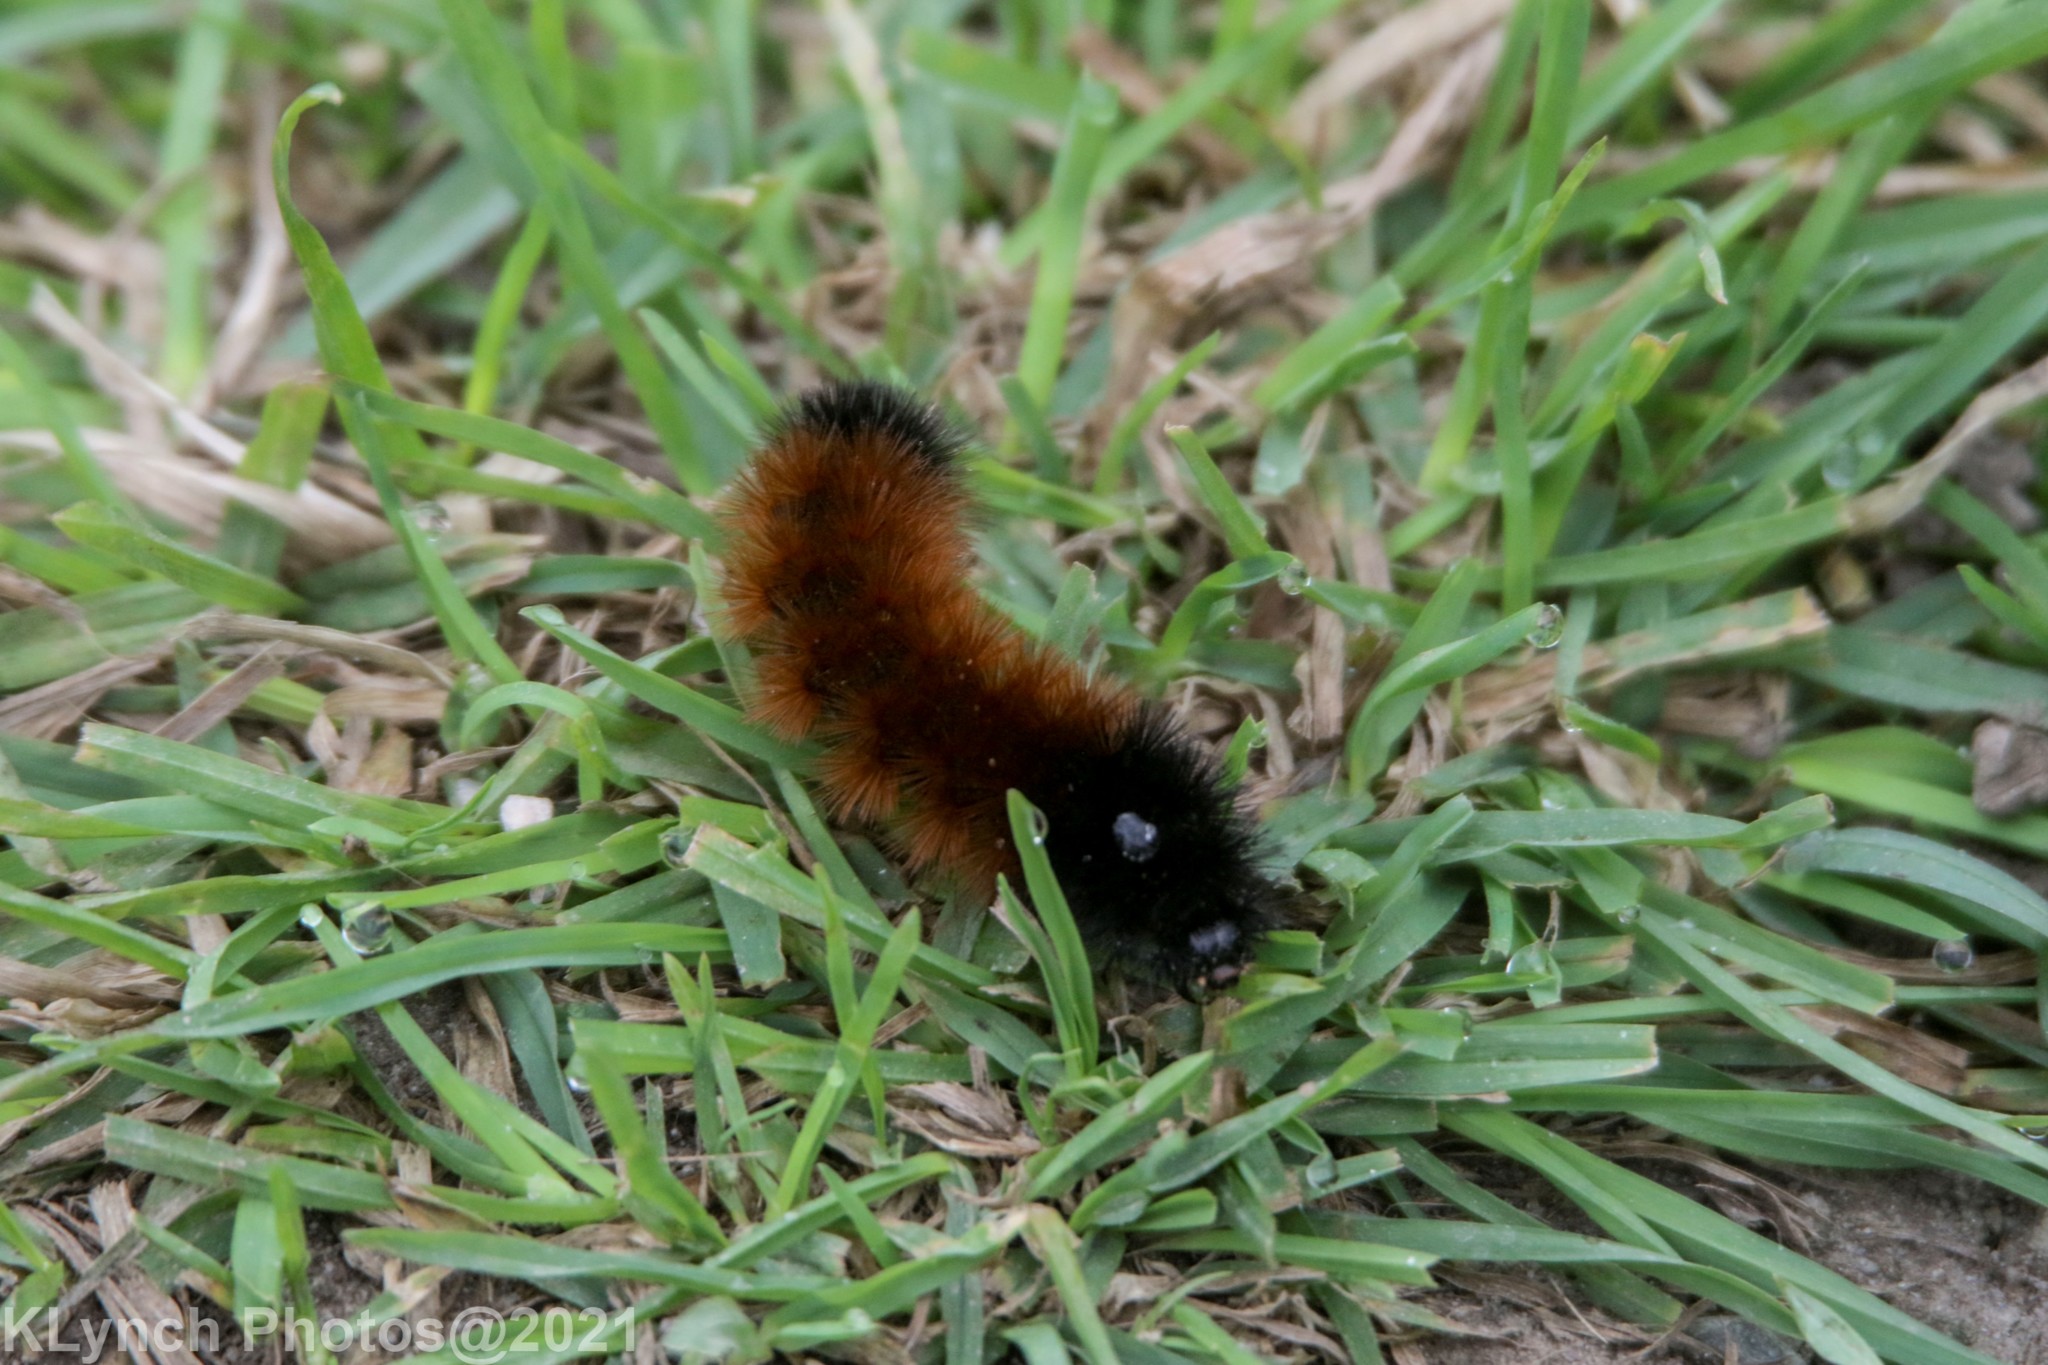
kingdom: Animalia
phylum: Arthropoda
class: Insecta
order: Lepidoptera
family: Erebidae
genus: Pyrrharctia
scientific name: Pyrrharctia isabella
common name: Isabella tiger moth
